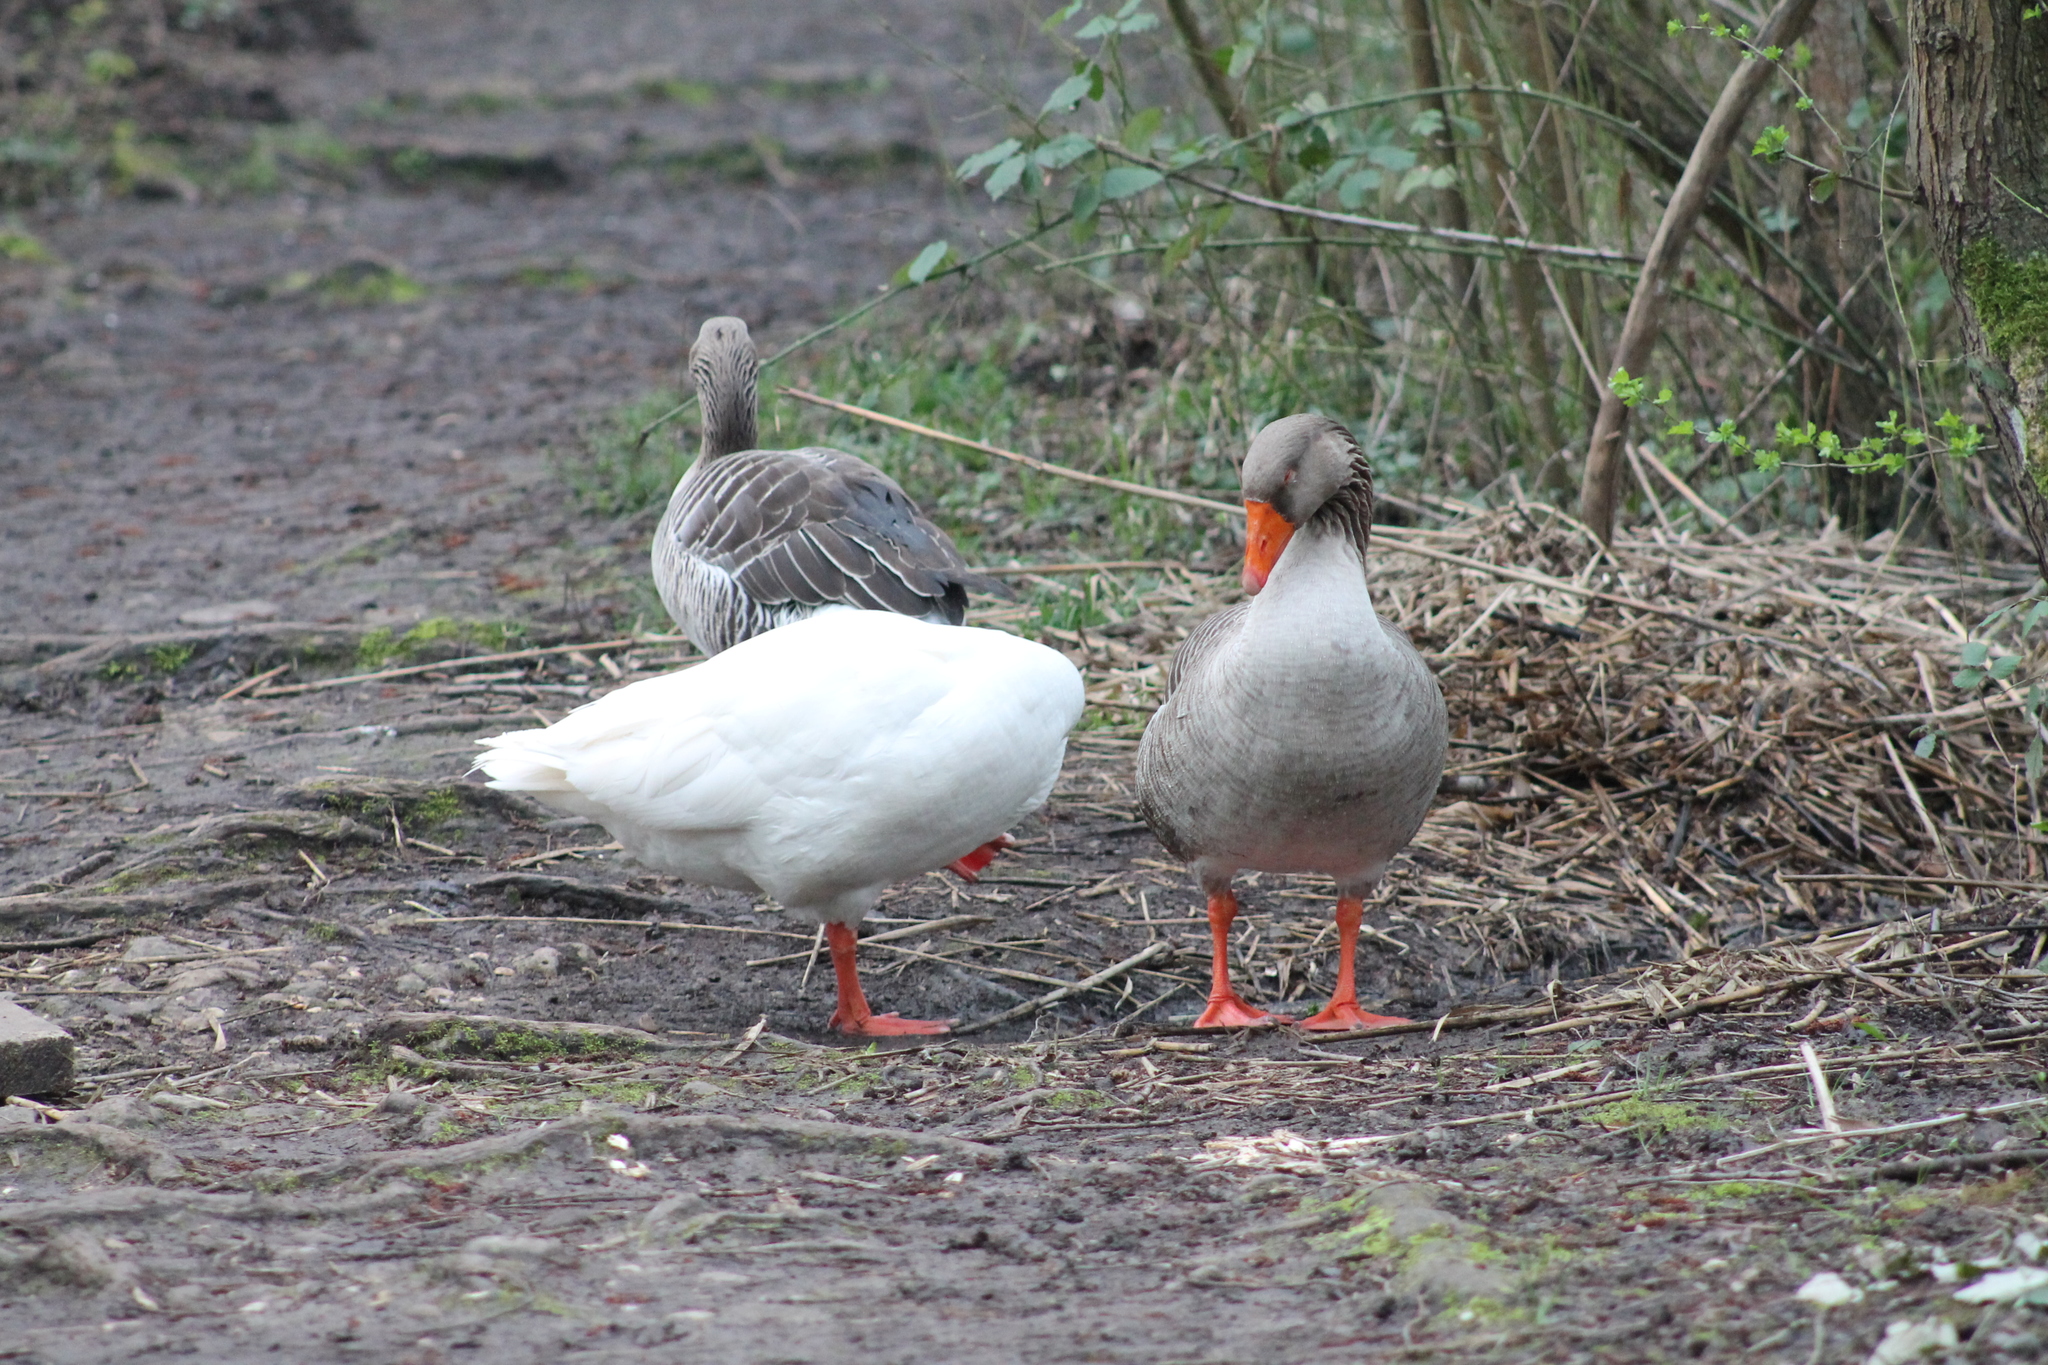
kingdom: Animalia
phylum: Chordata
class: Aves
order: Anseriformes
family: Anatidae
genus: Anser
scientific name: Anser anser
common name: Greylag goose
